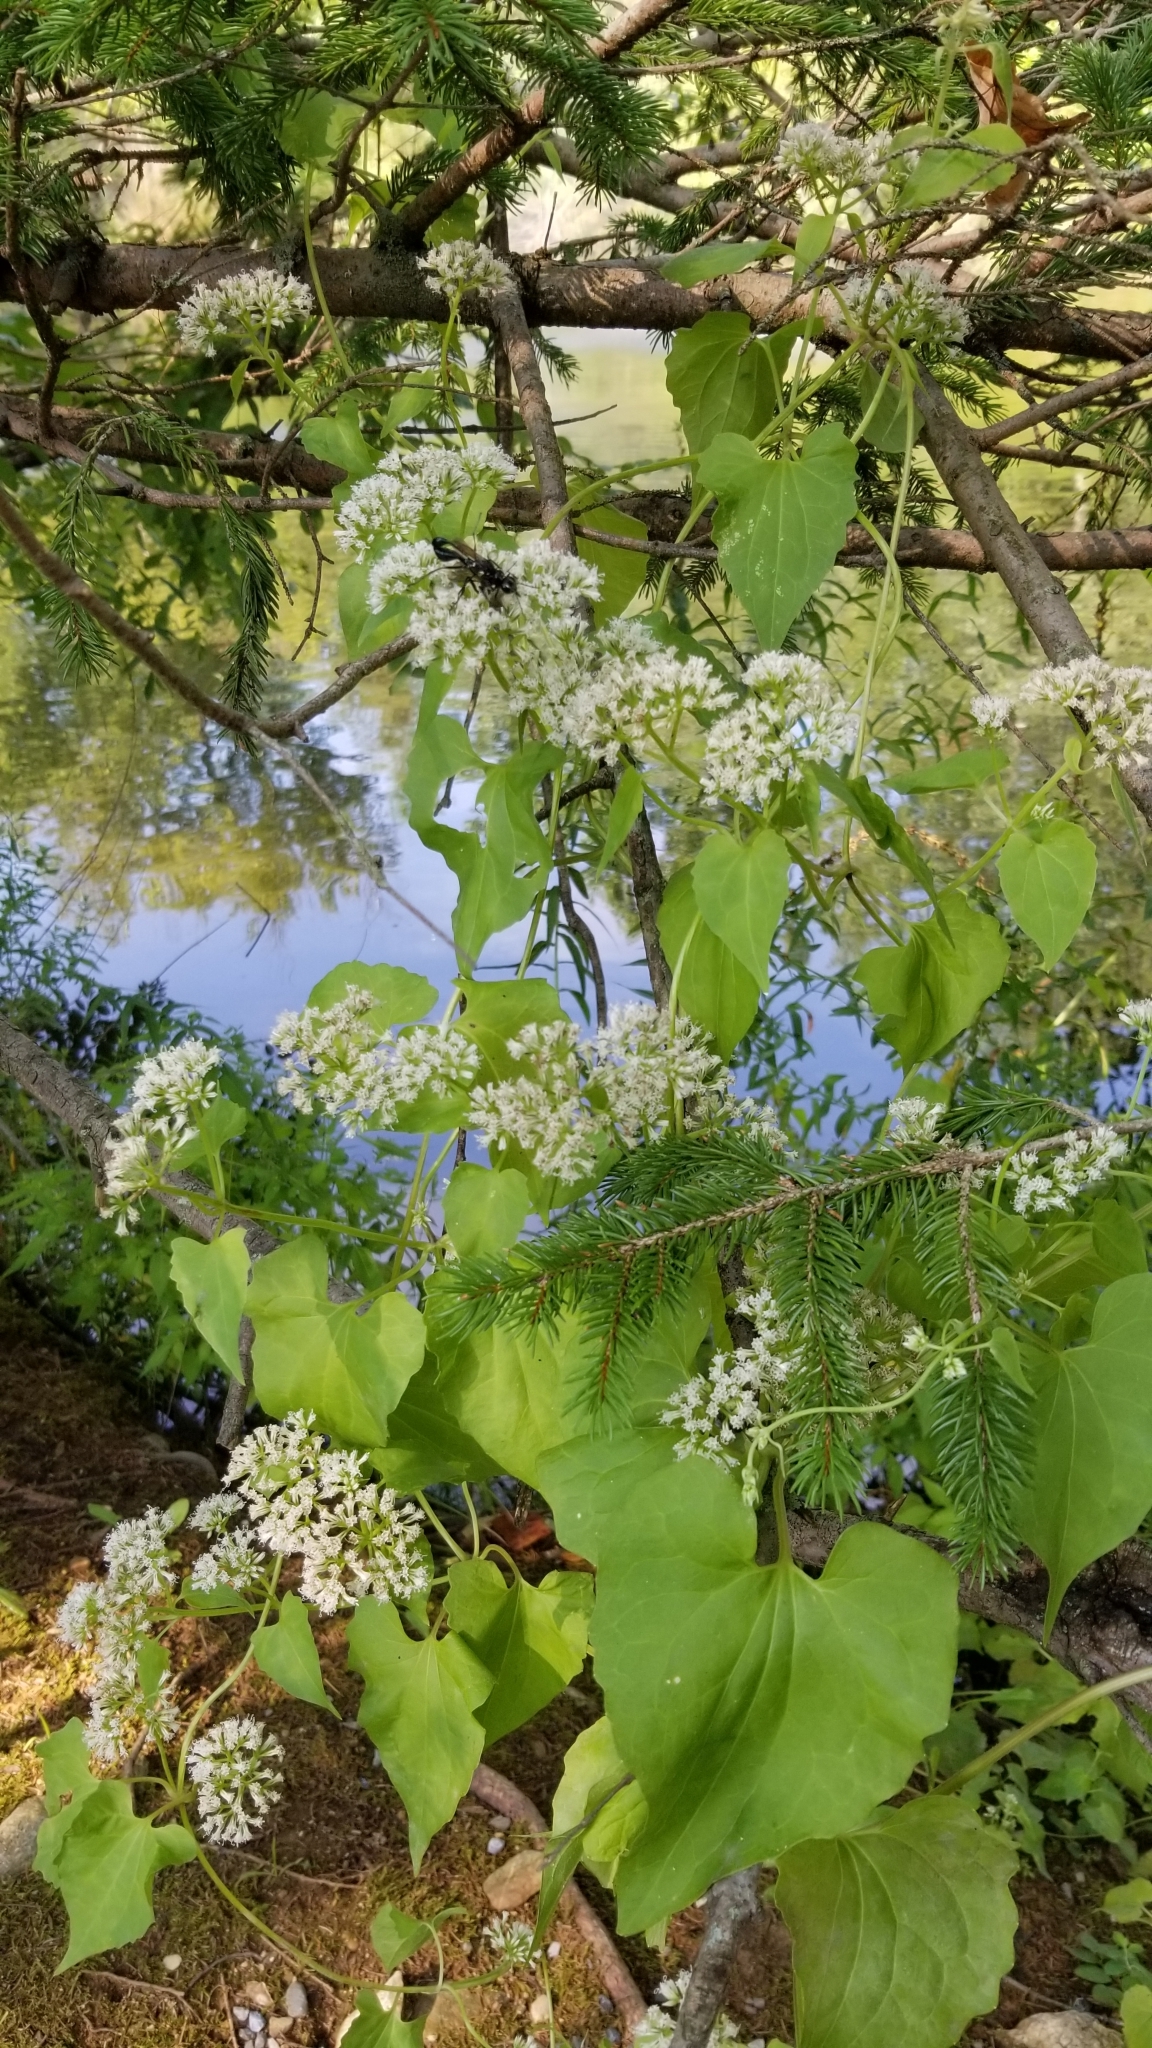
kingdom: Plantae
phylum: Tracheophyta
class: Magnoliopsida
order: Asterales
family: Asteraceae
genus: Mikania
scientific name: Mikania scandens
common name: Climbing hempvine
